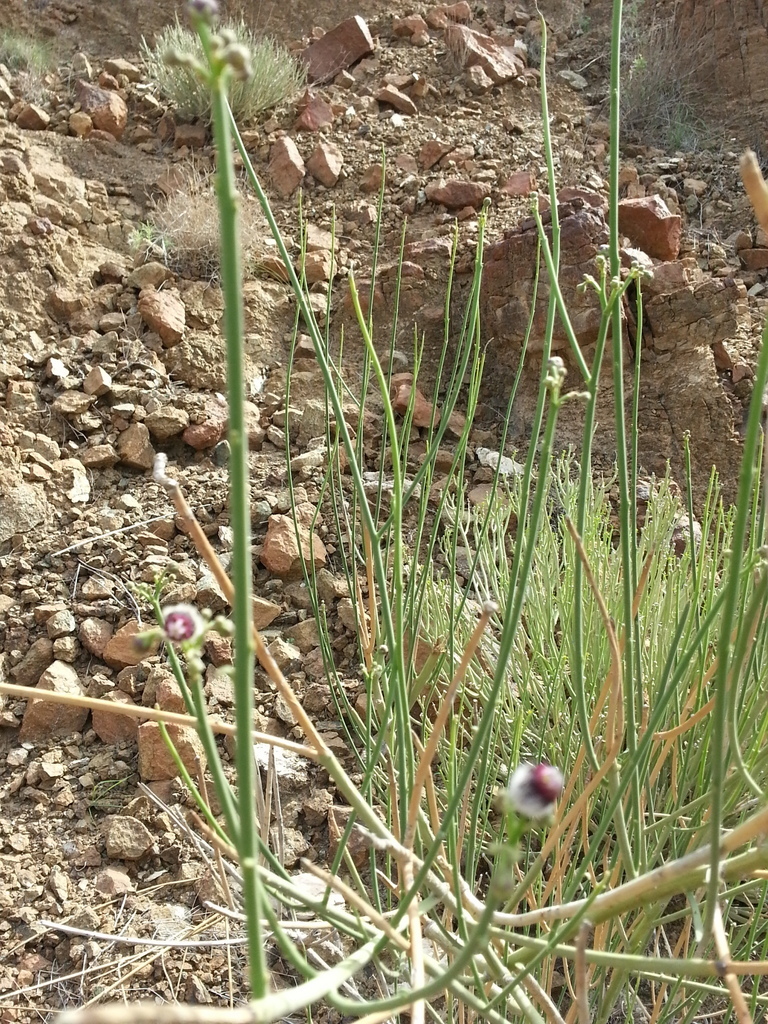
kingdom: Plantae
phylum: Tracheophyta
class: Magnoliopsida
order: Gentianales
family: Apocynaceae
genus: Periploca
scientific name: Periploca aphylla
